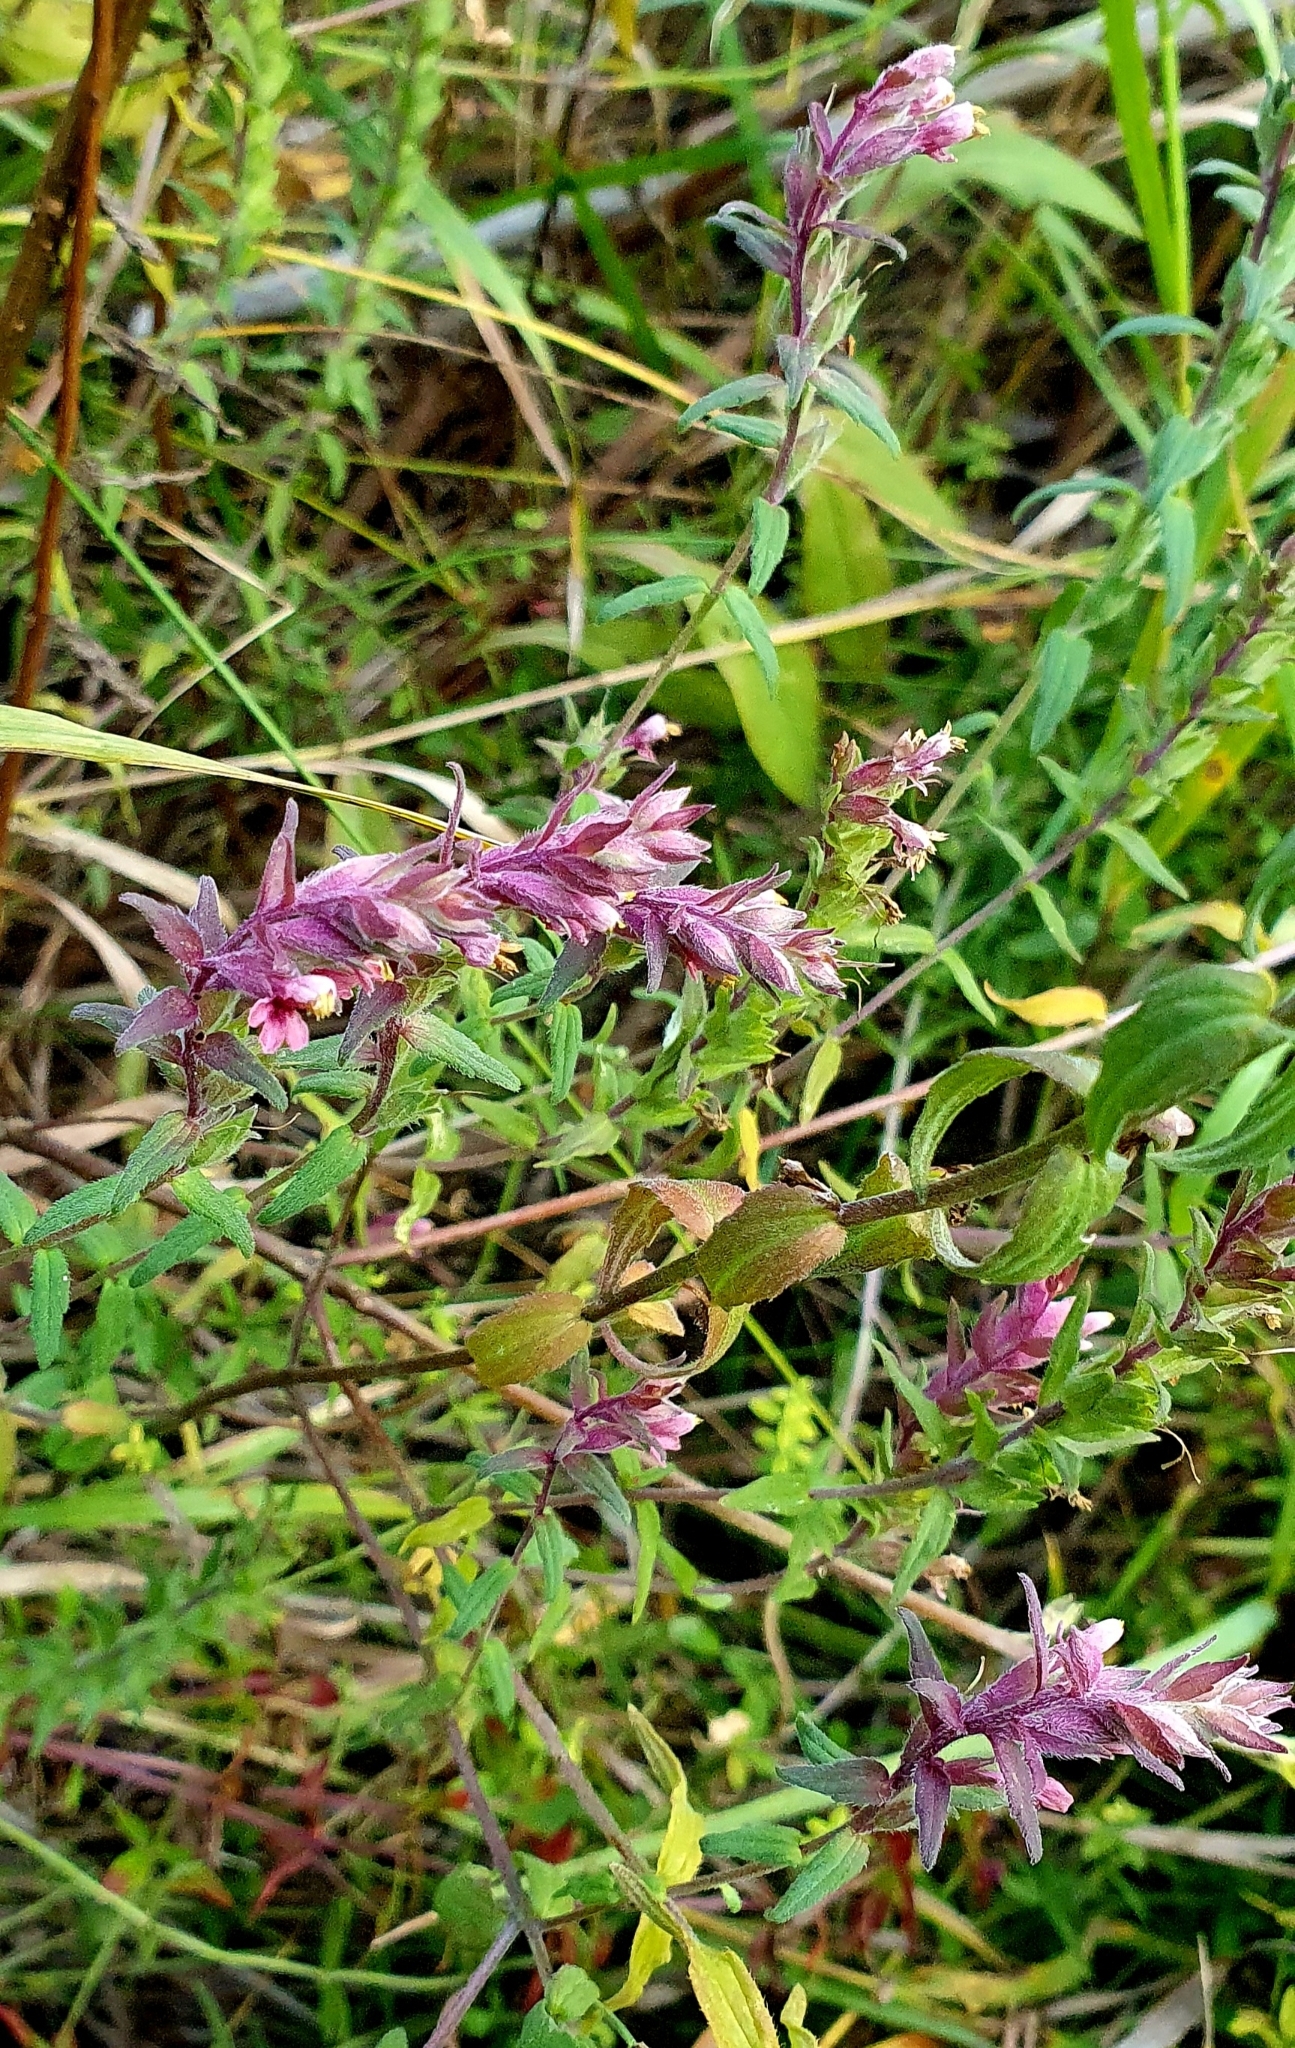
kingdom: Plantae
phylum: Tracheophyta
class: Magnoliopsida
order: Lamiales
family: Orobanchaceae
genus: Odontites
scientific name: Odontites vulgaris
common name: Broomrape
